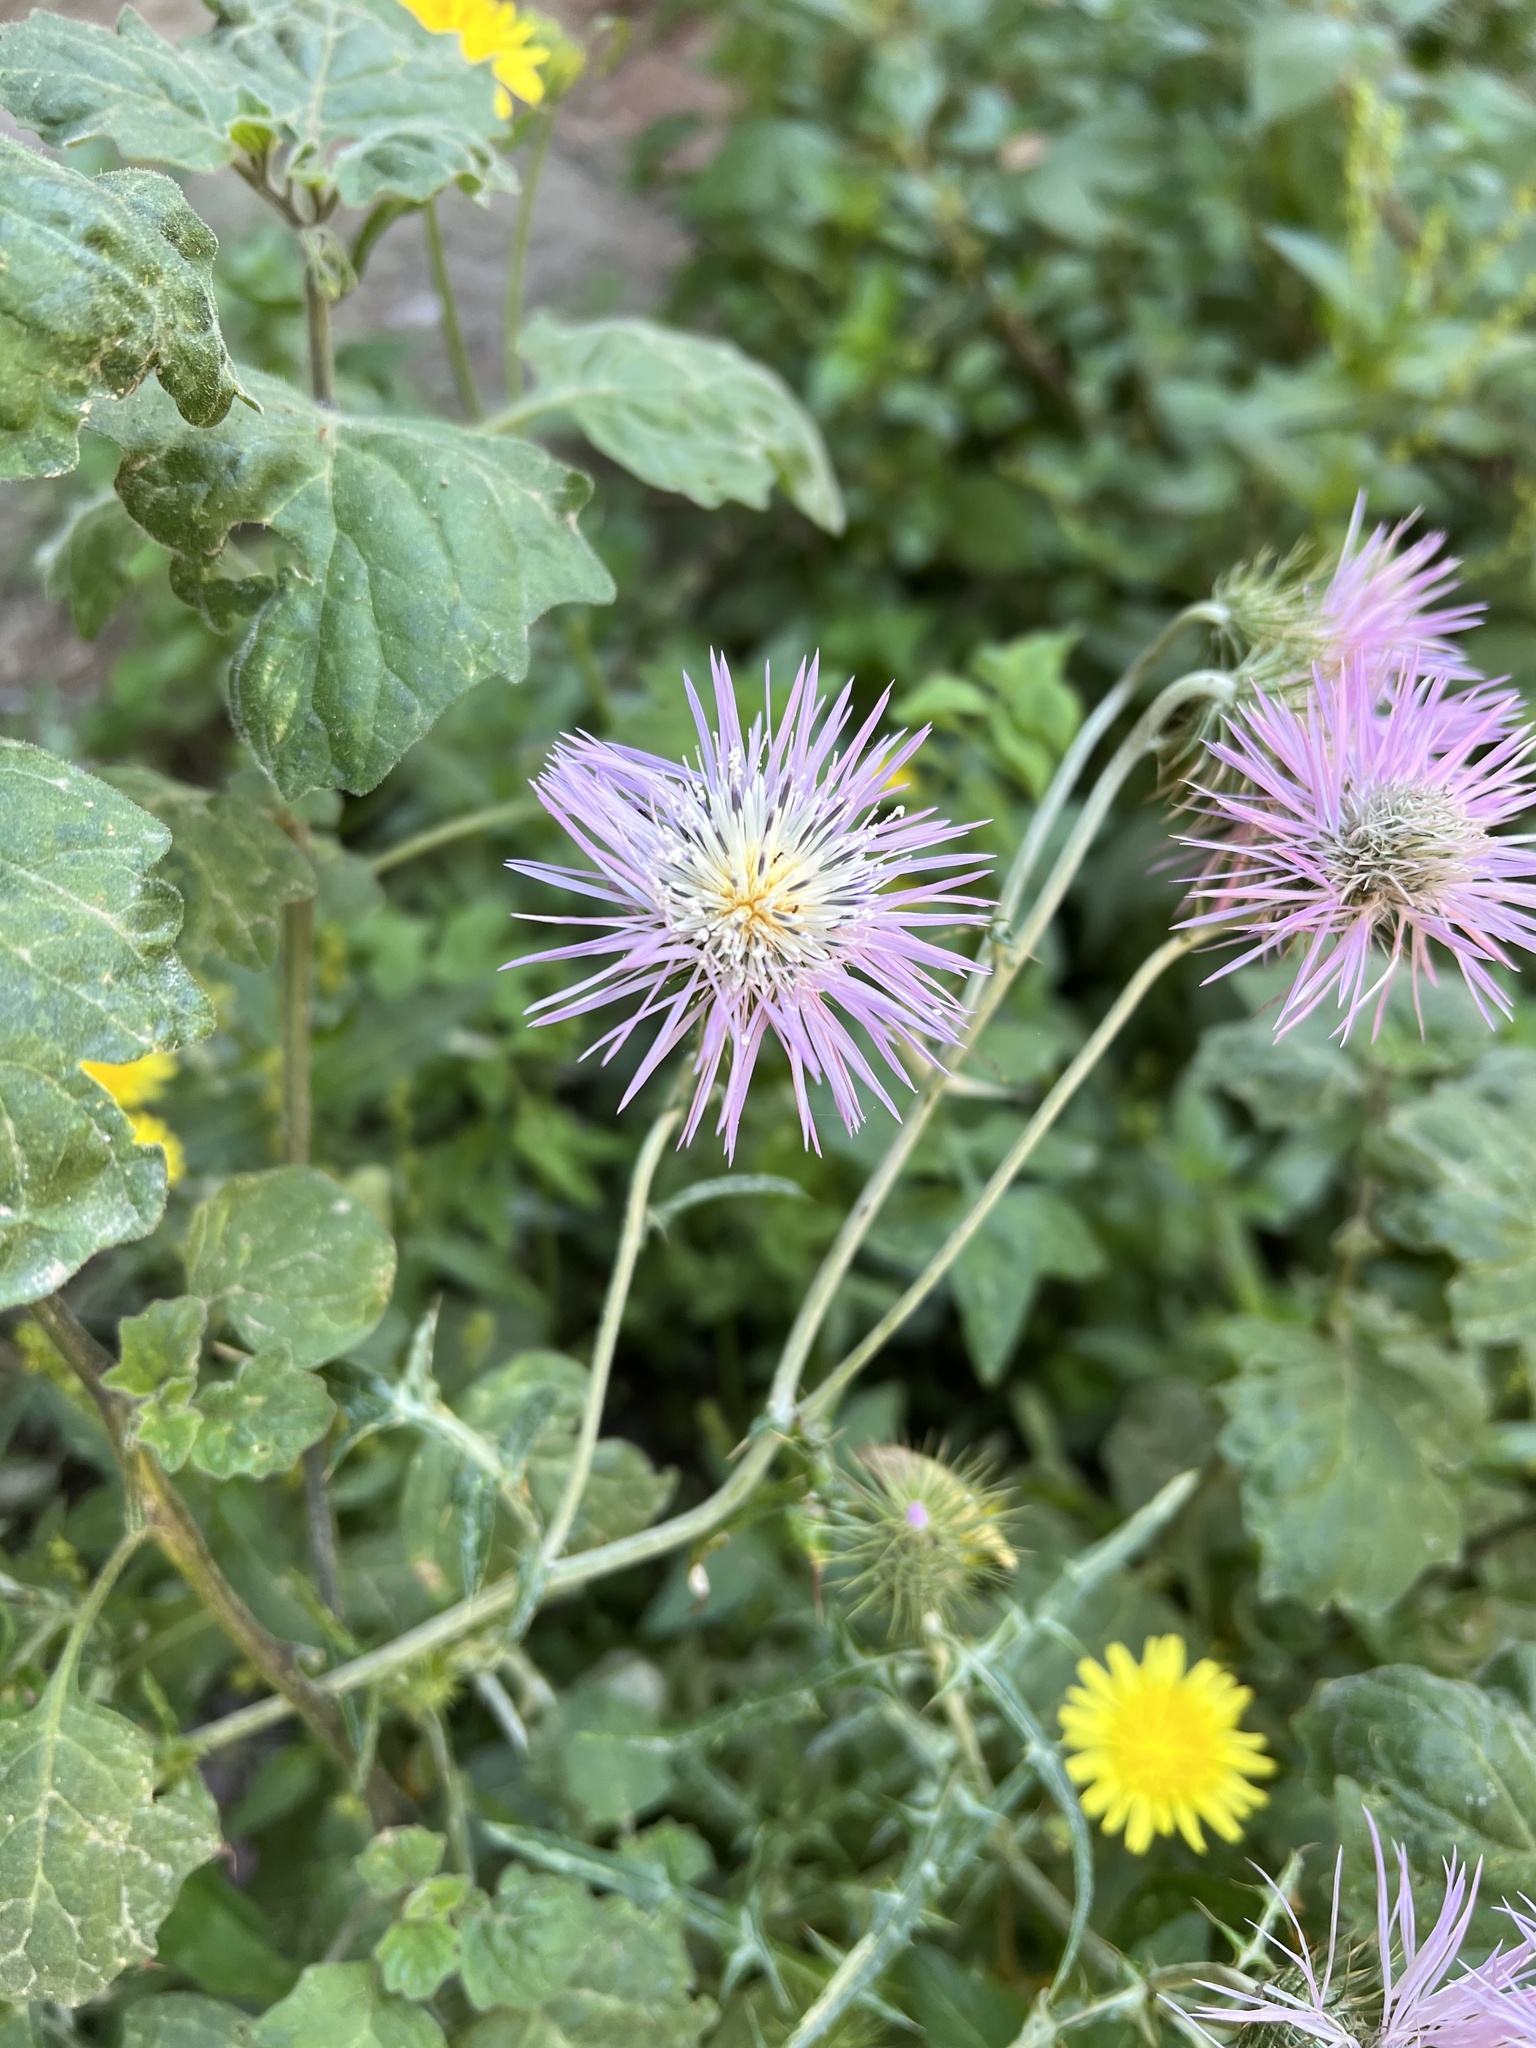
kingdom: Plantae
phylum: Tracheophyta
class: Magnoliopsida
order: Asterales
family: Asteraceae
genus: Galactites
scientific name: Galactites tomentosa
